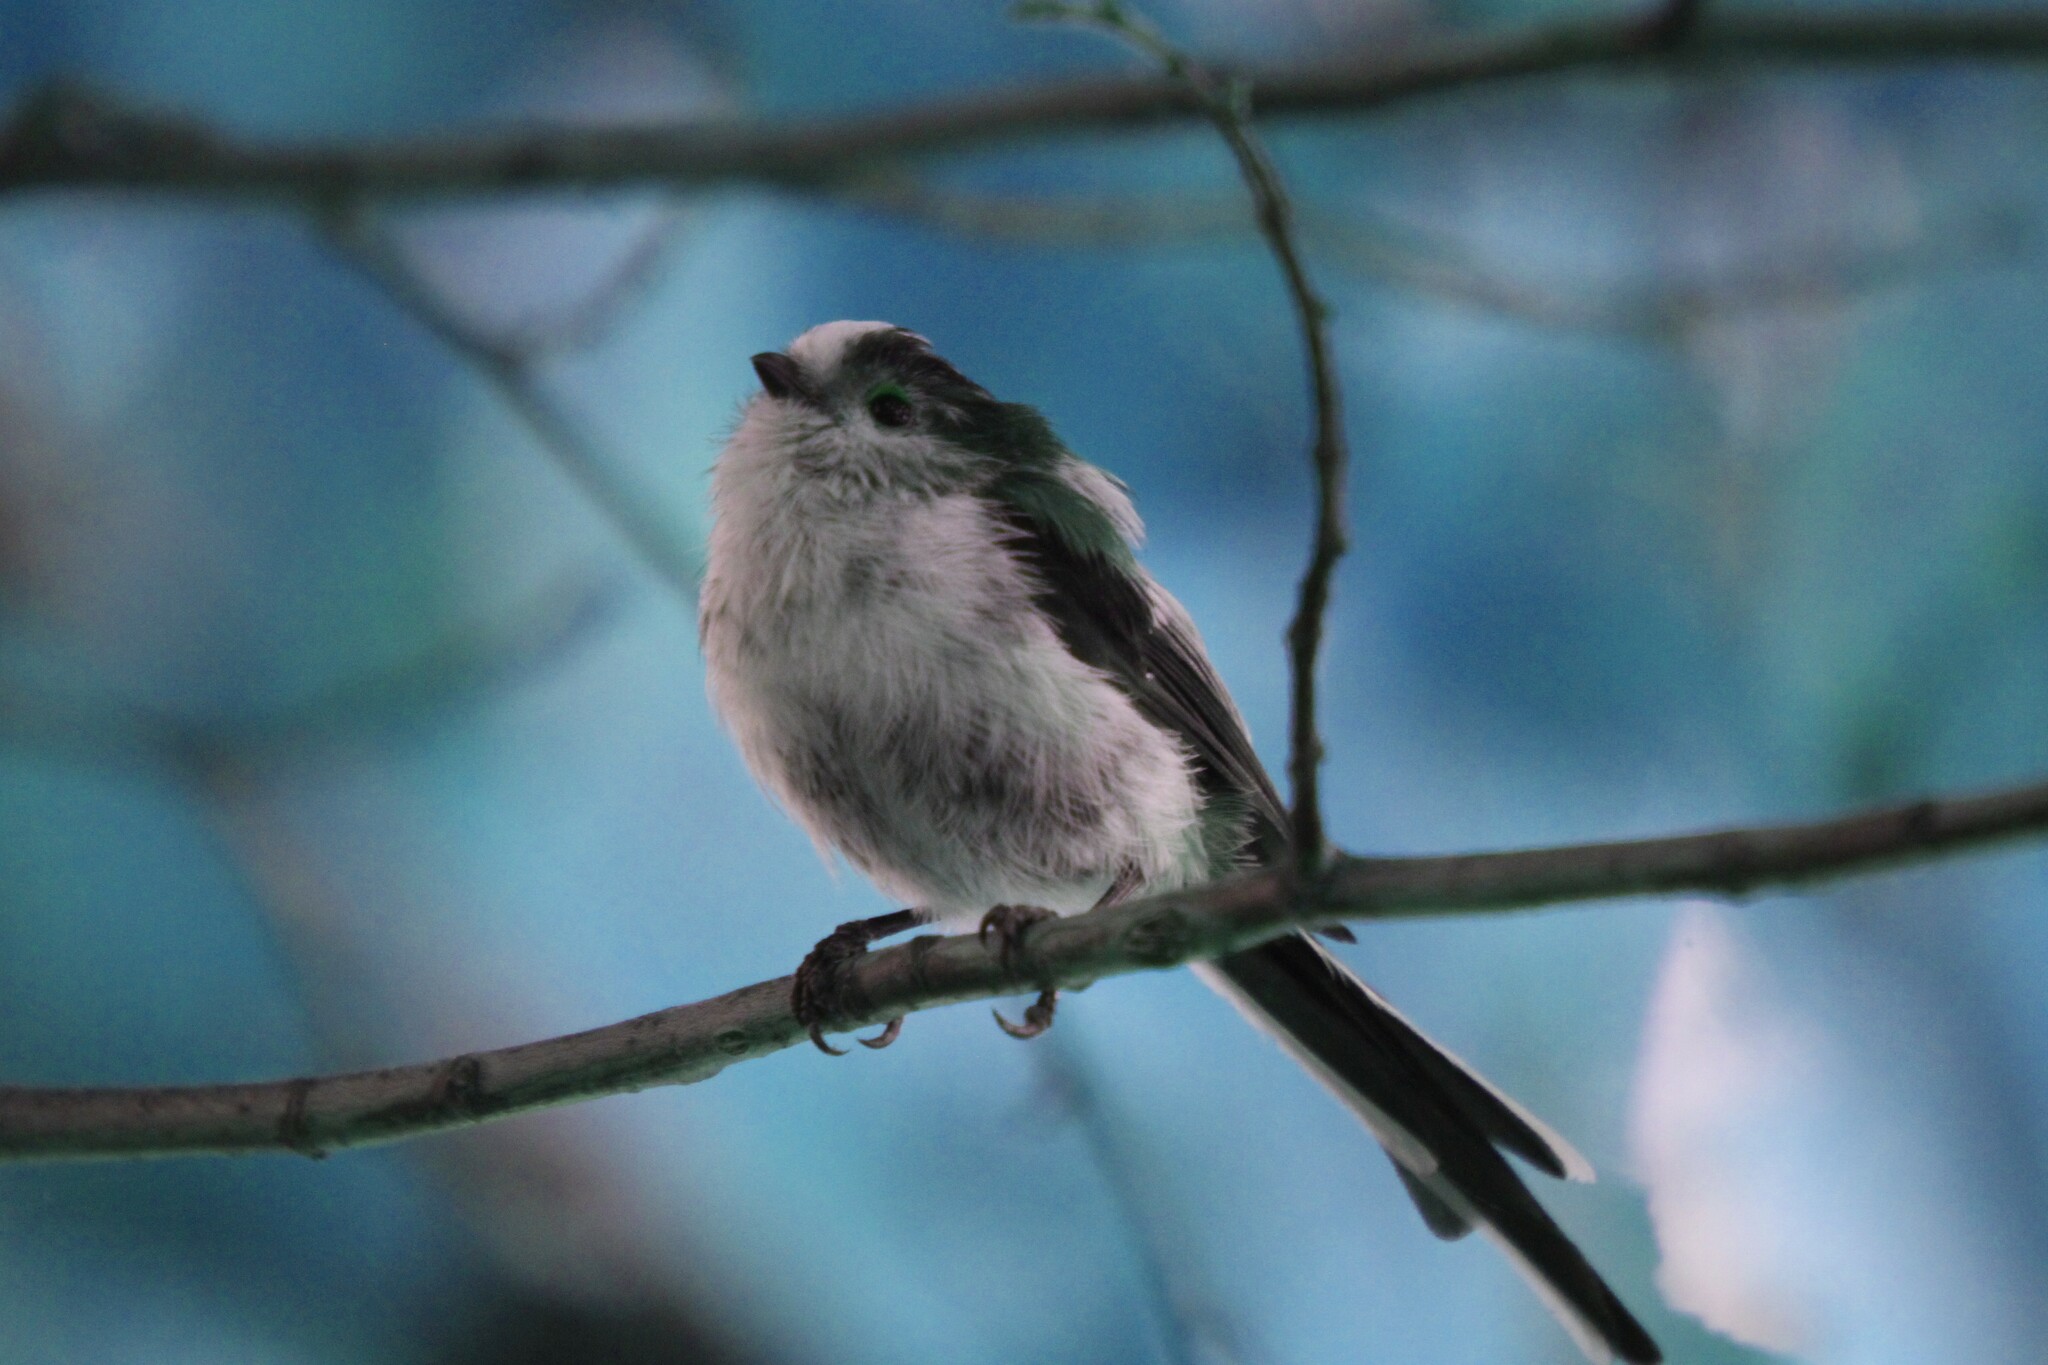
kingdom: Animalia
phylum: Chordata
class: Aves
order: Passeriformes
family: Aegithalidae
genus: Aegithalos
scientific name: Aegithalos caudatus
